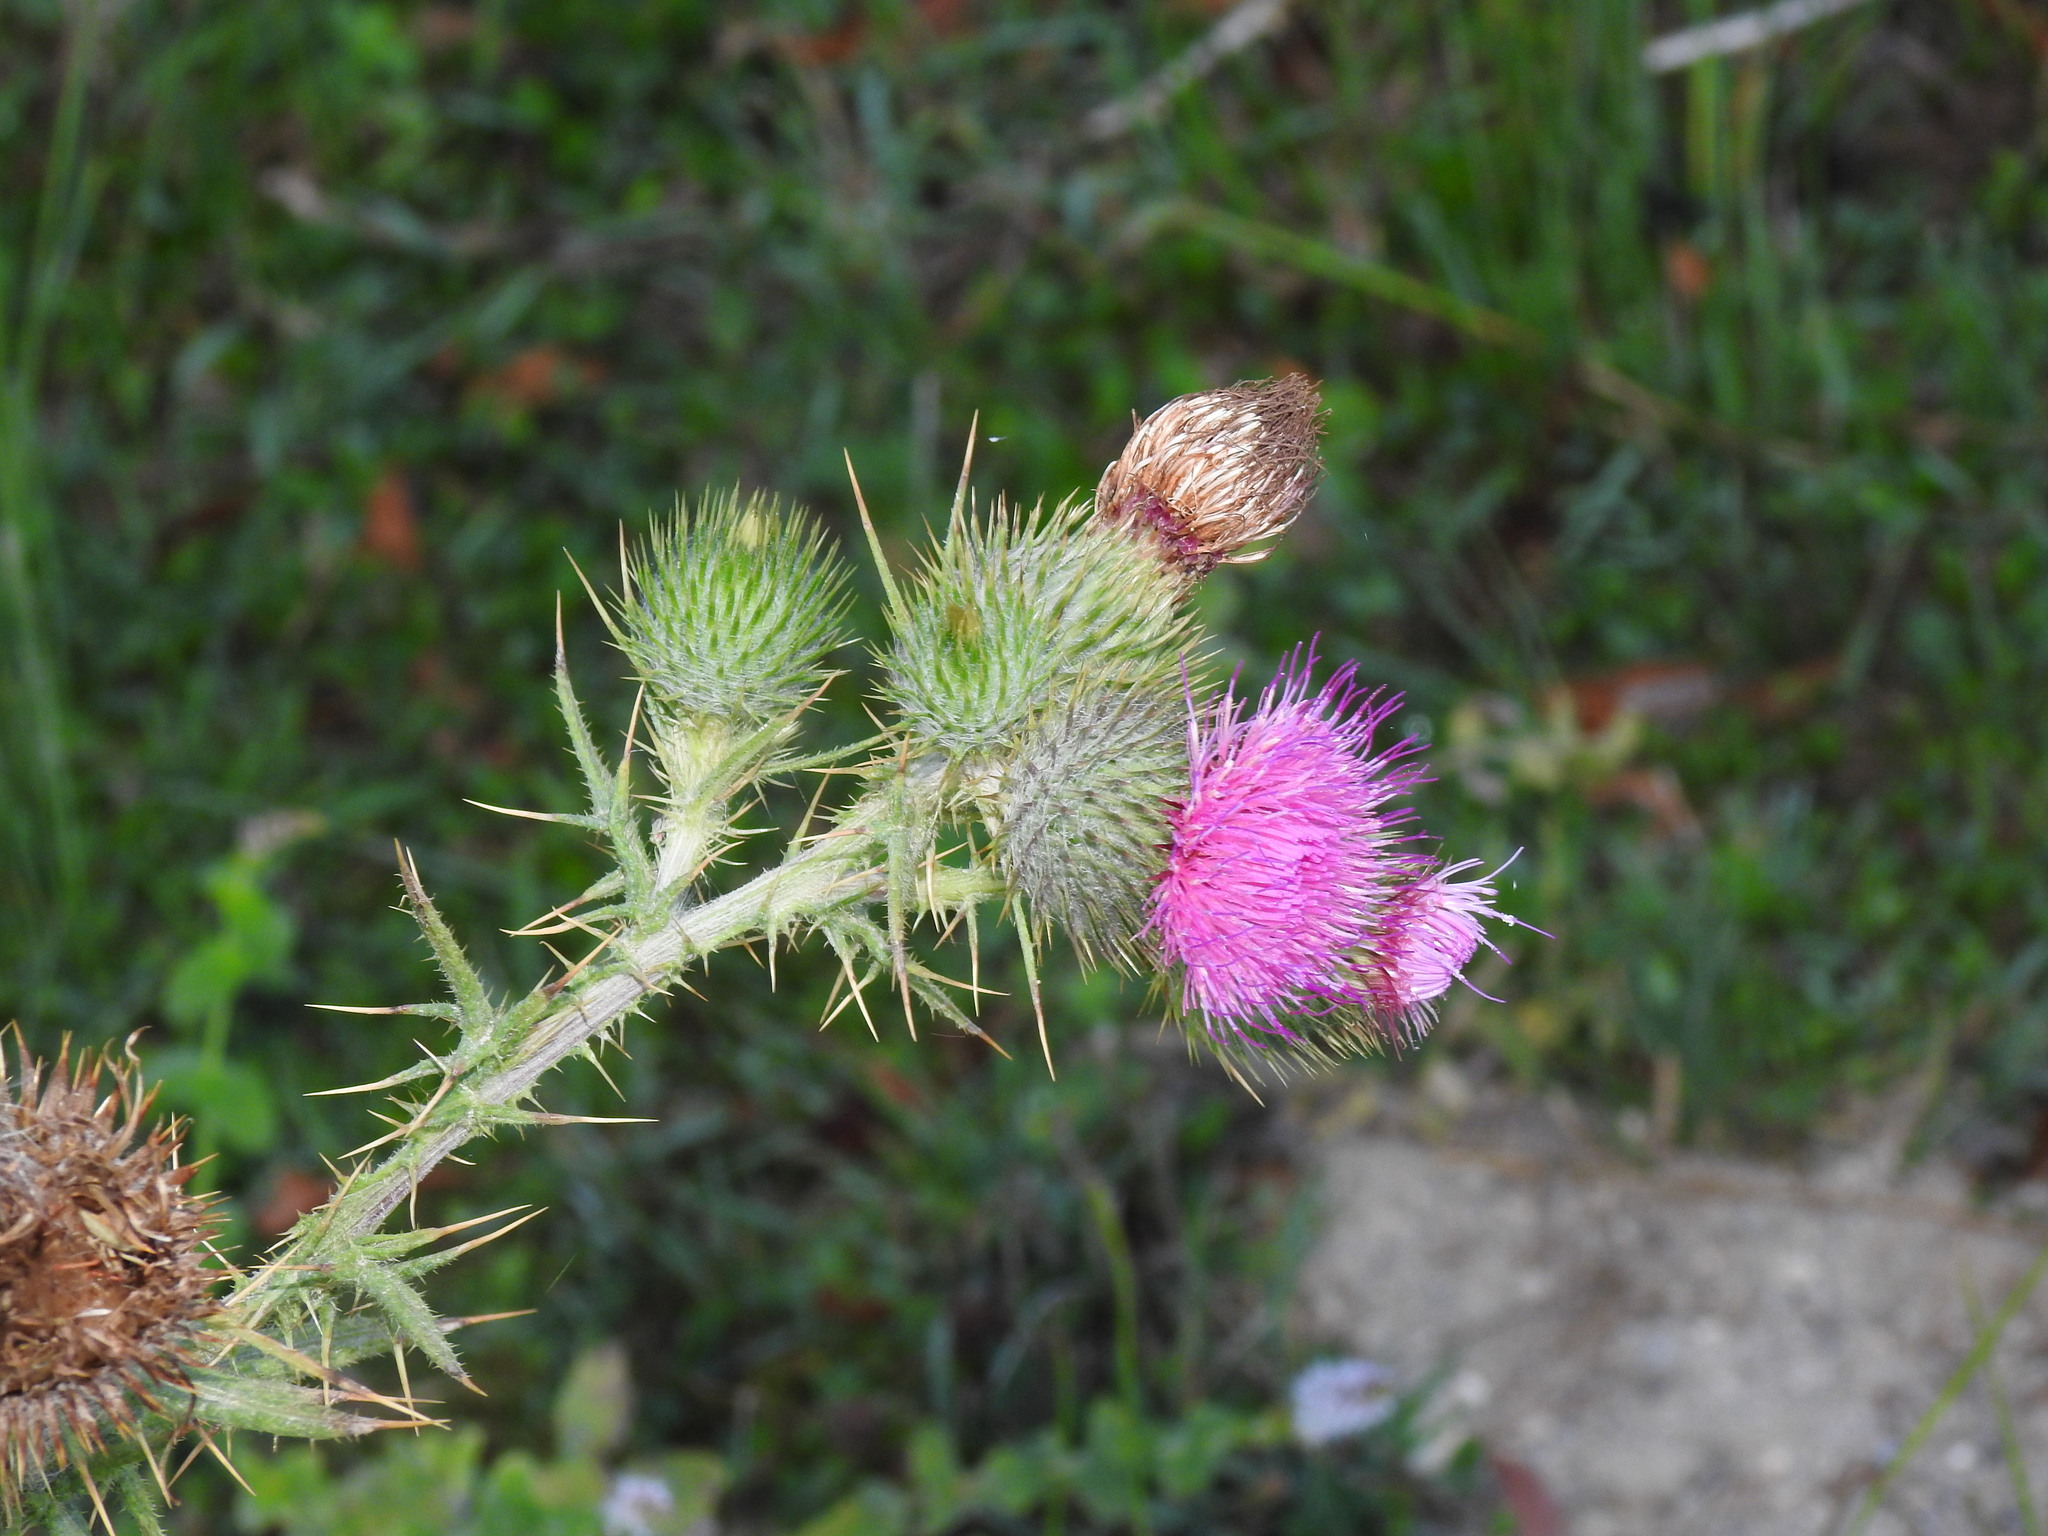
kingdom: Plantae
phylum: Tracheophyta
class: Magnoliopsida
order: Asterales
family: Asteraceae
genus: Cirsium
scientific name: Cirsium vulgare
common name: Bull thistle
